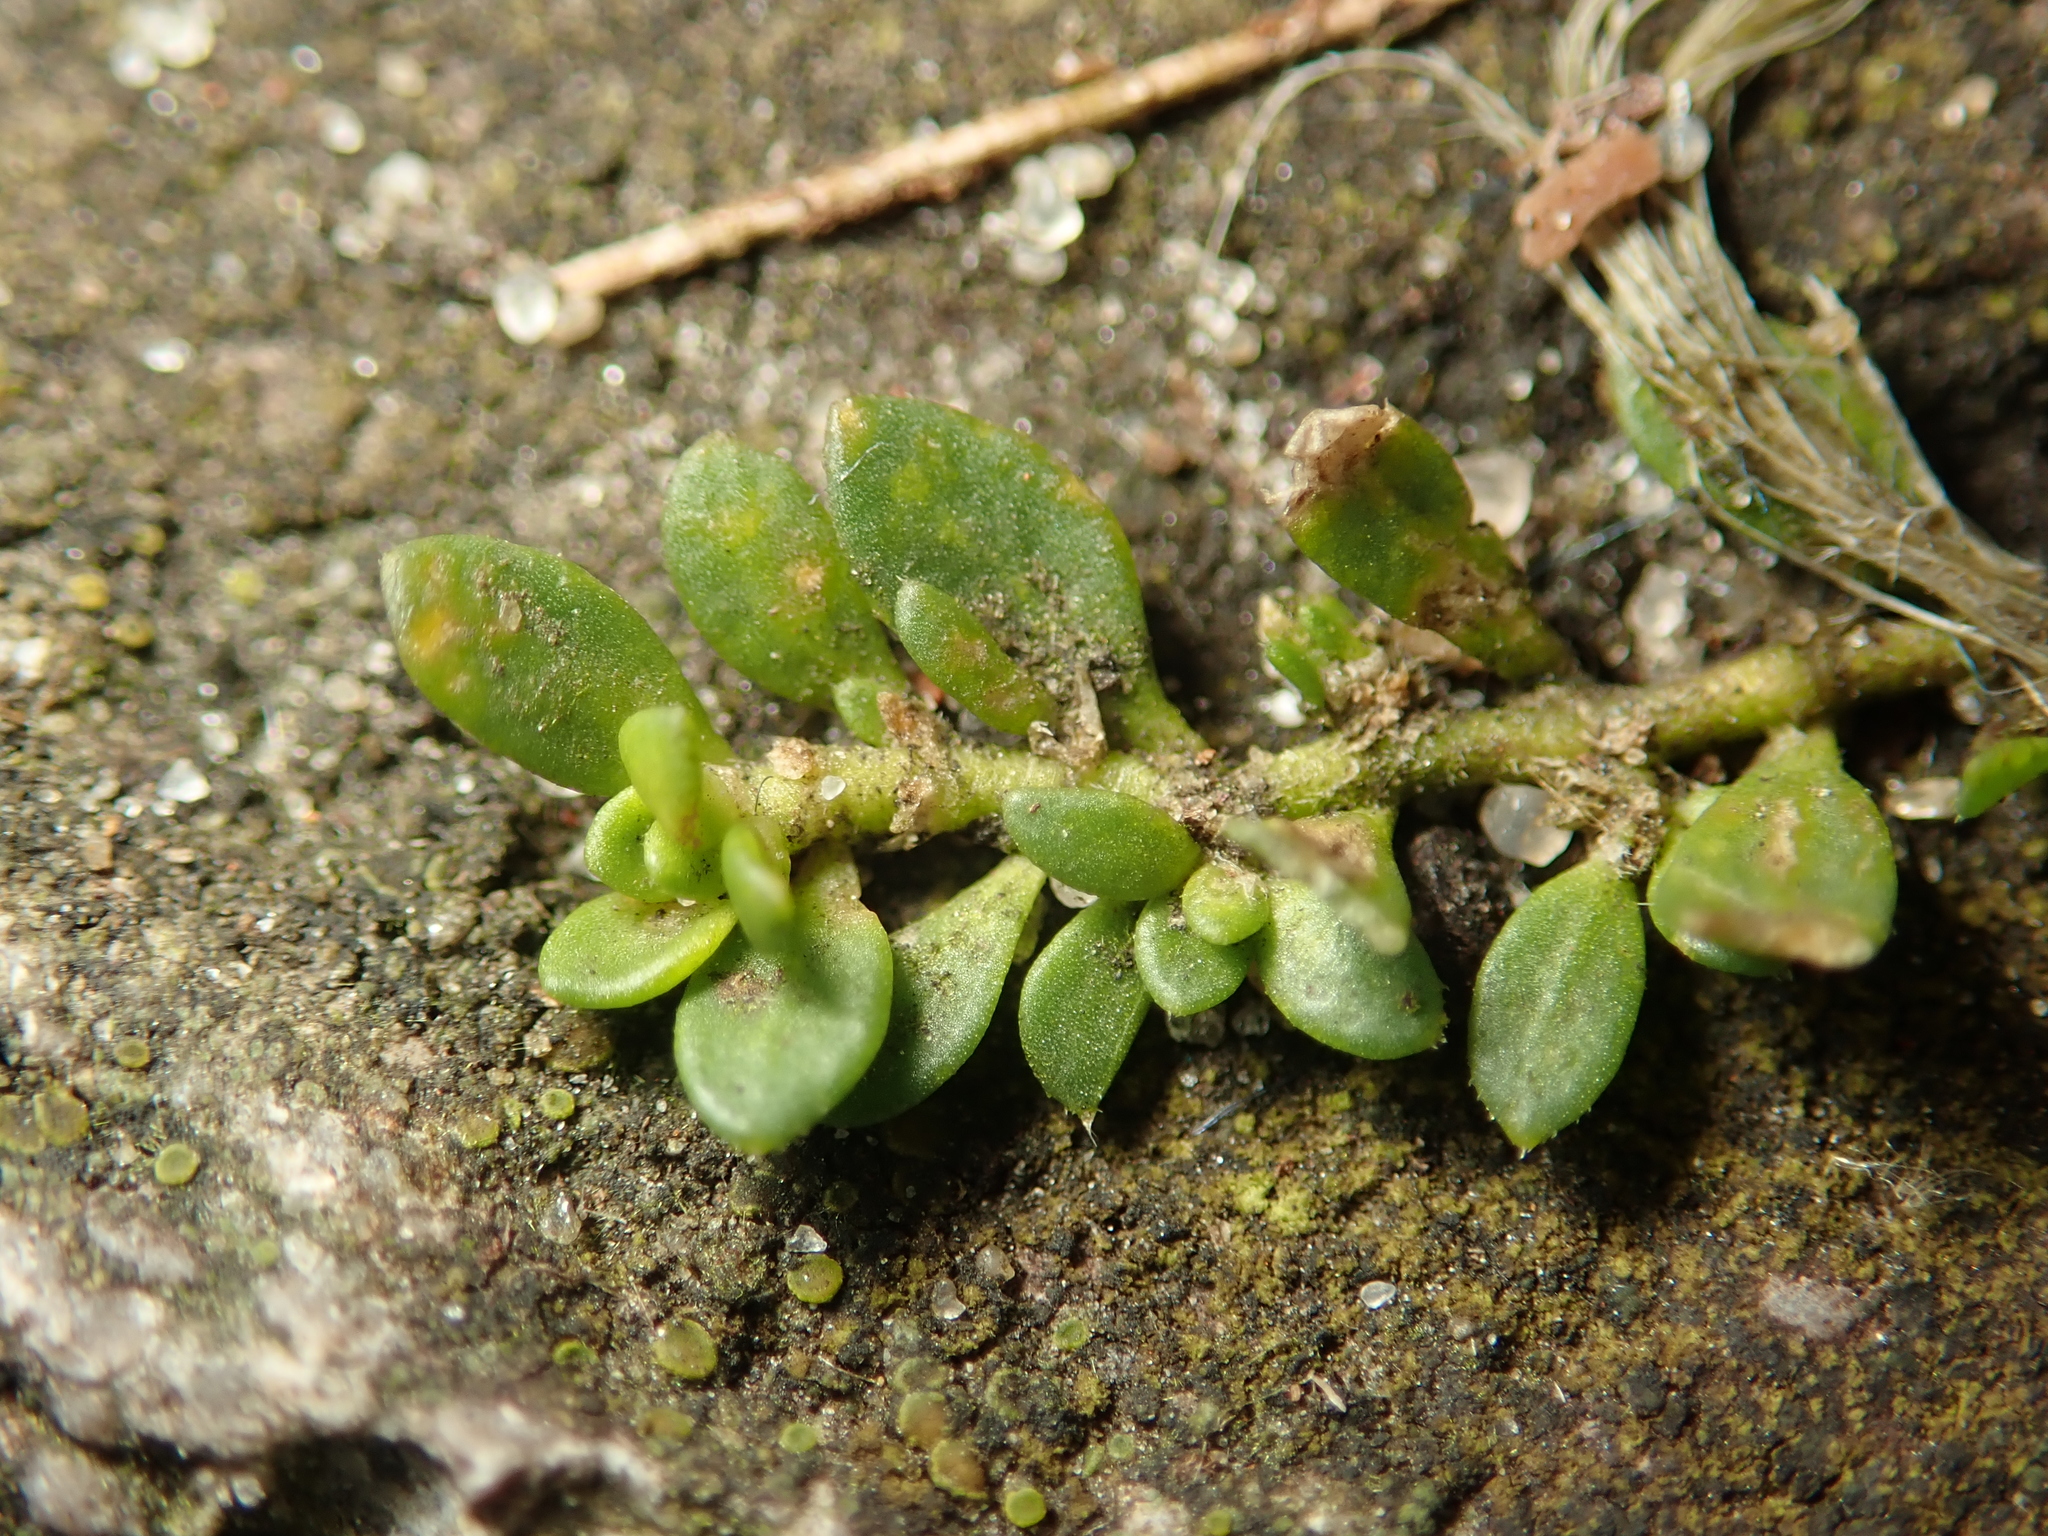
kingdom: Plantae
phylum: Tracheophyta
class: Magnoliopsida
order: Caryophyllales
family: Caryophyllaceae
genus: Herniaria
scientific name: Herniaria glabra
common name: Smooth rupturewort
